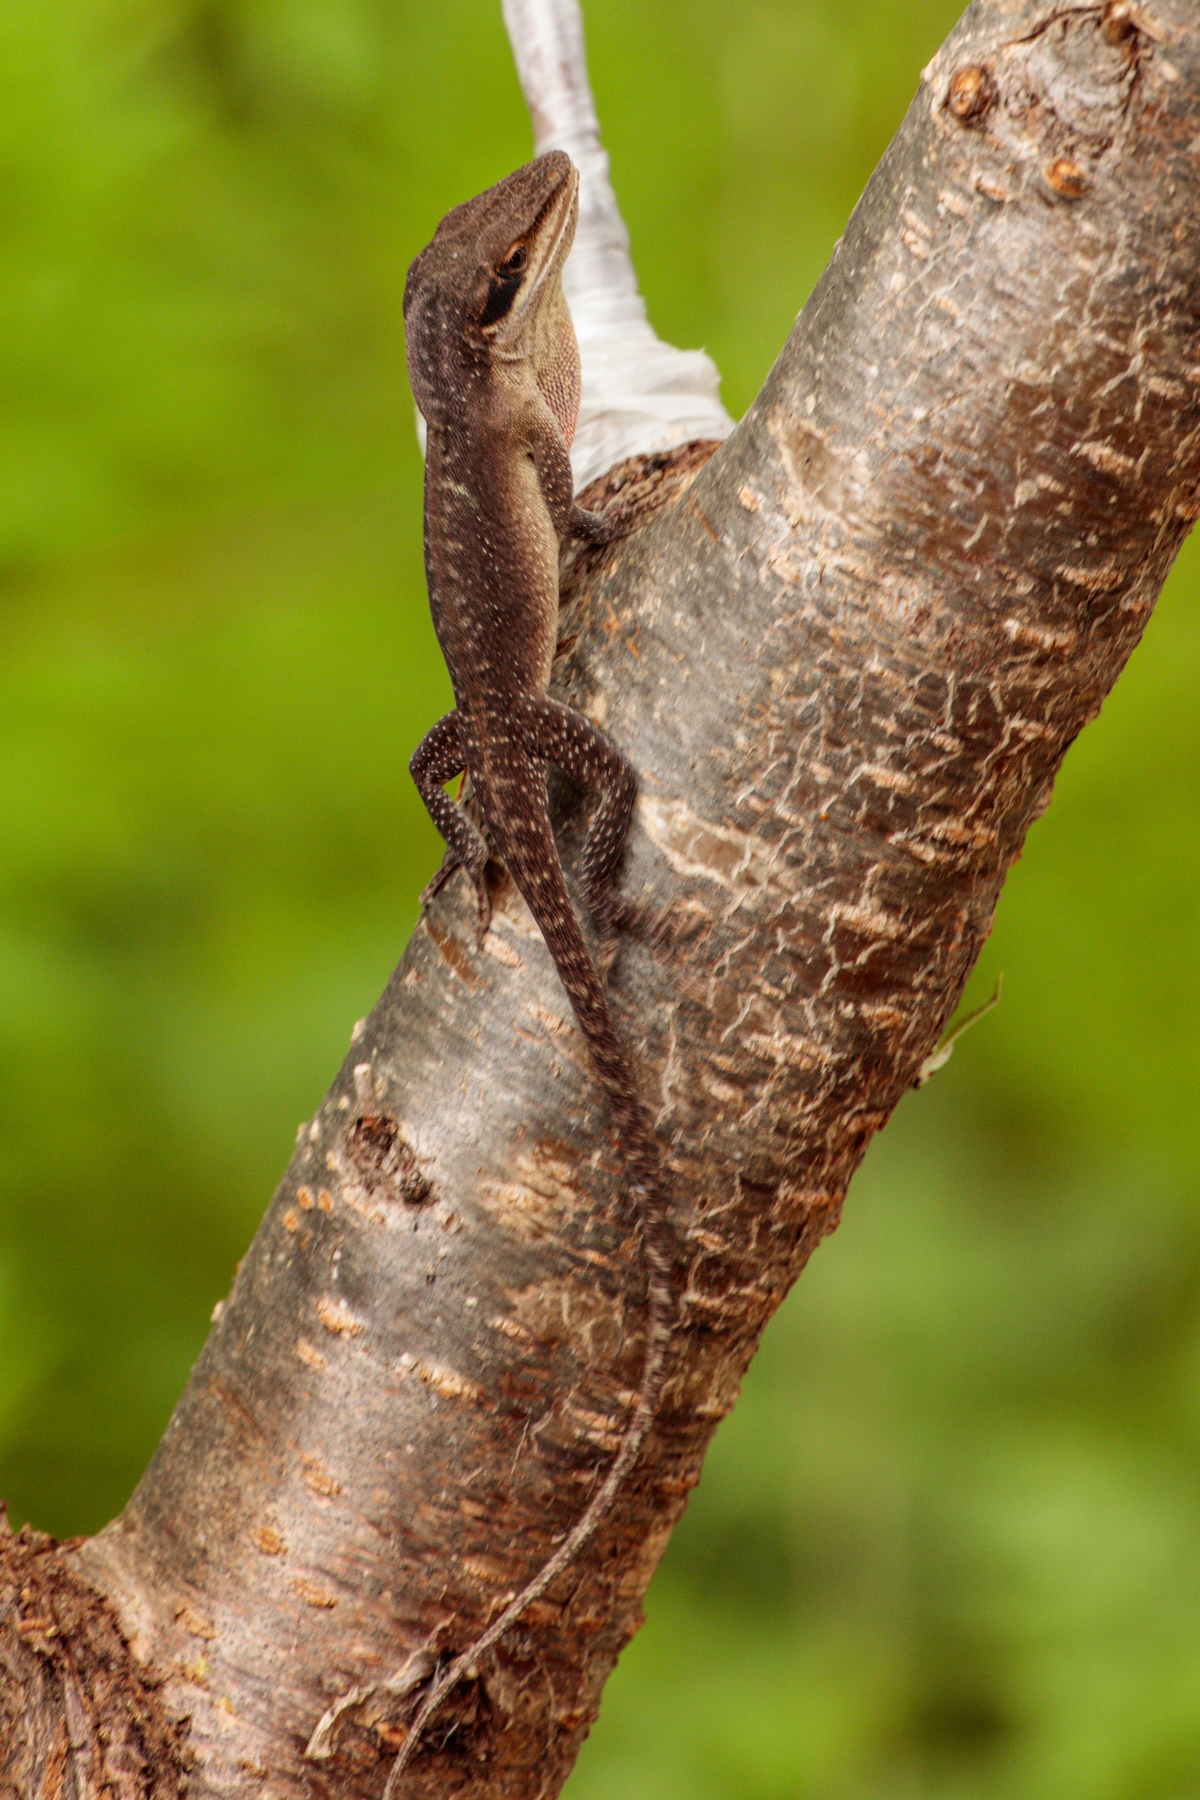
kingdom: Animalia
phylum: Chordata
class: Squamata
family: Dactyloidae
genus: Anolis
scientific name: Anolis carolinensis
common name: Green anole
